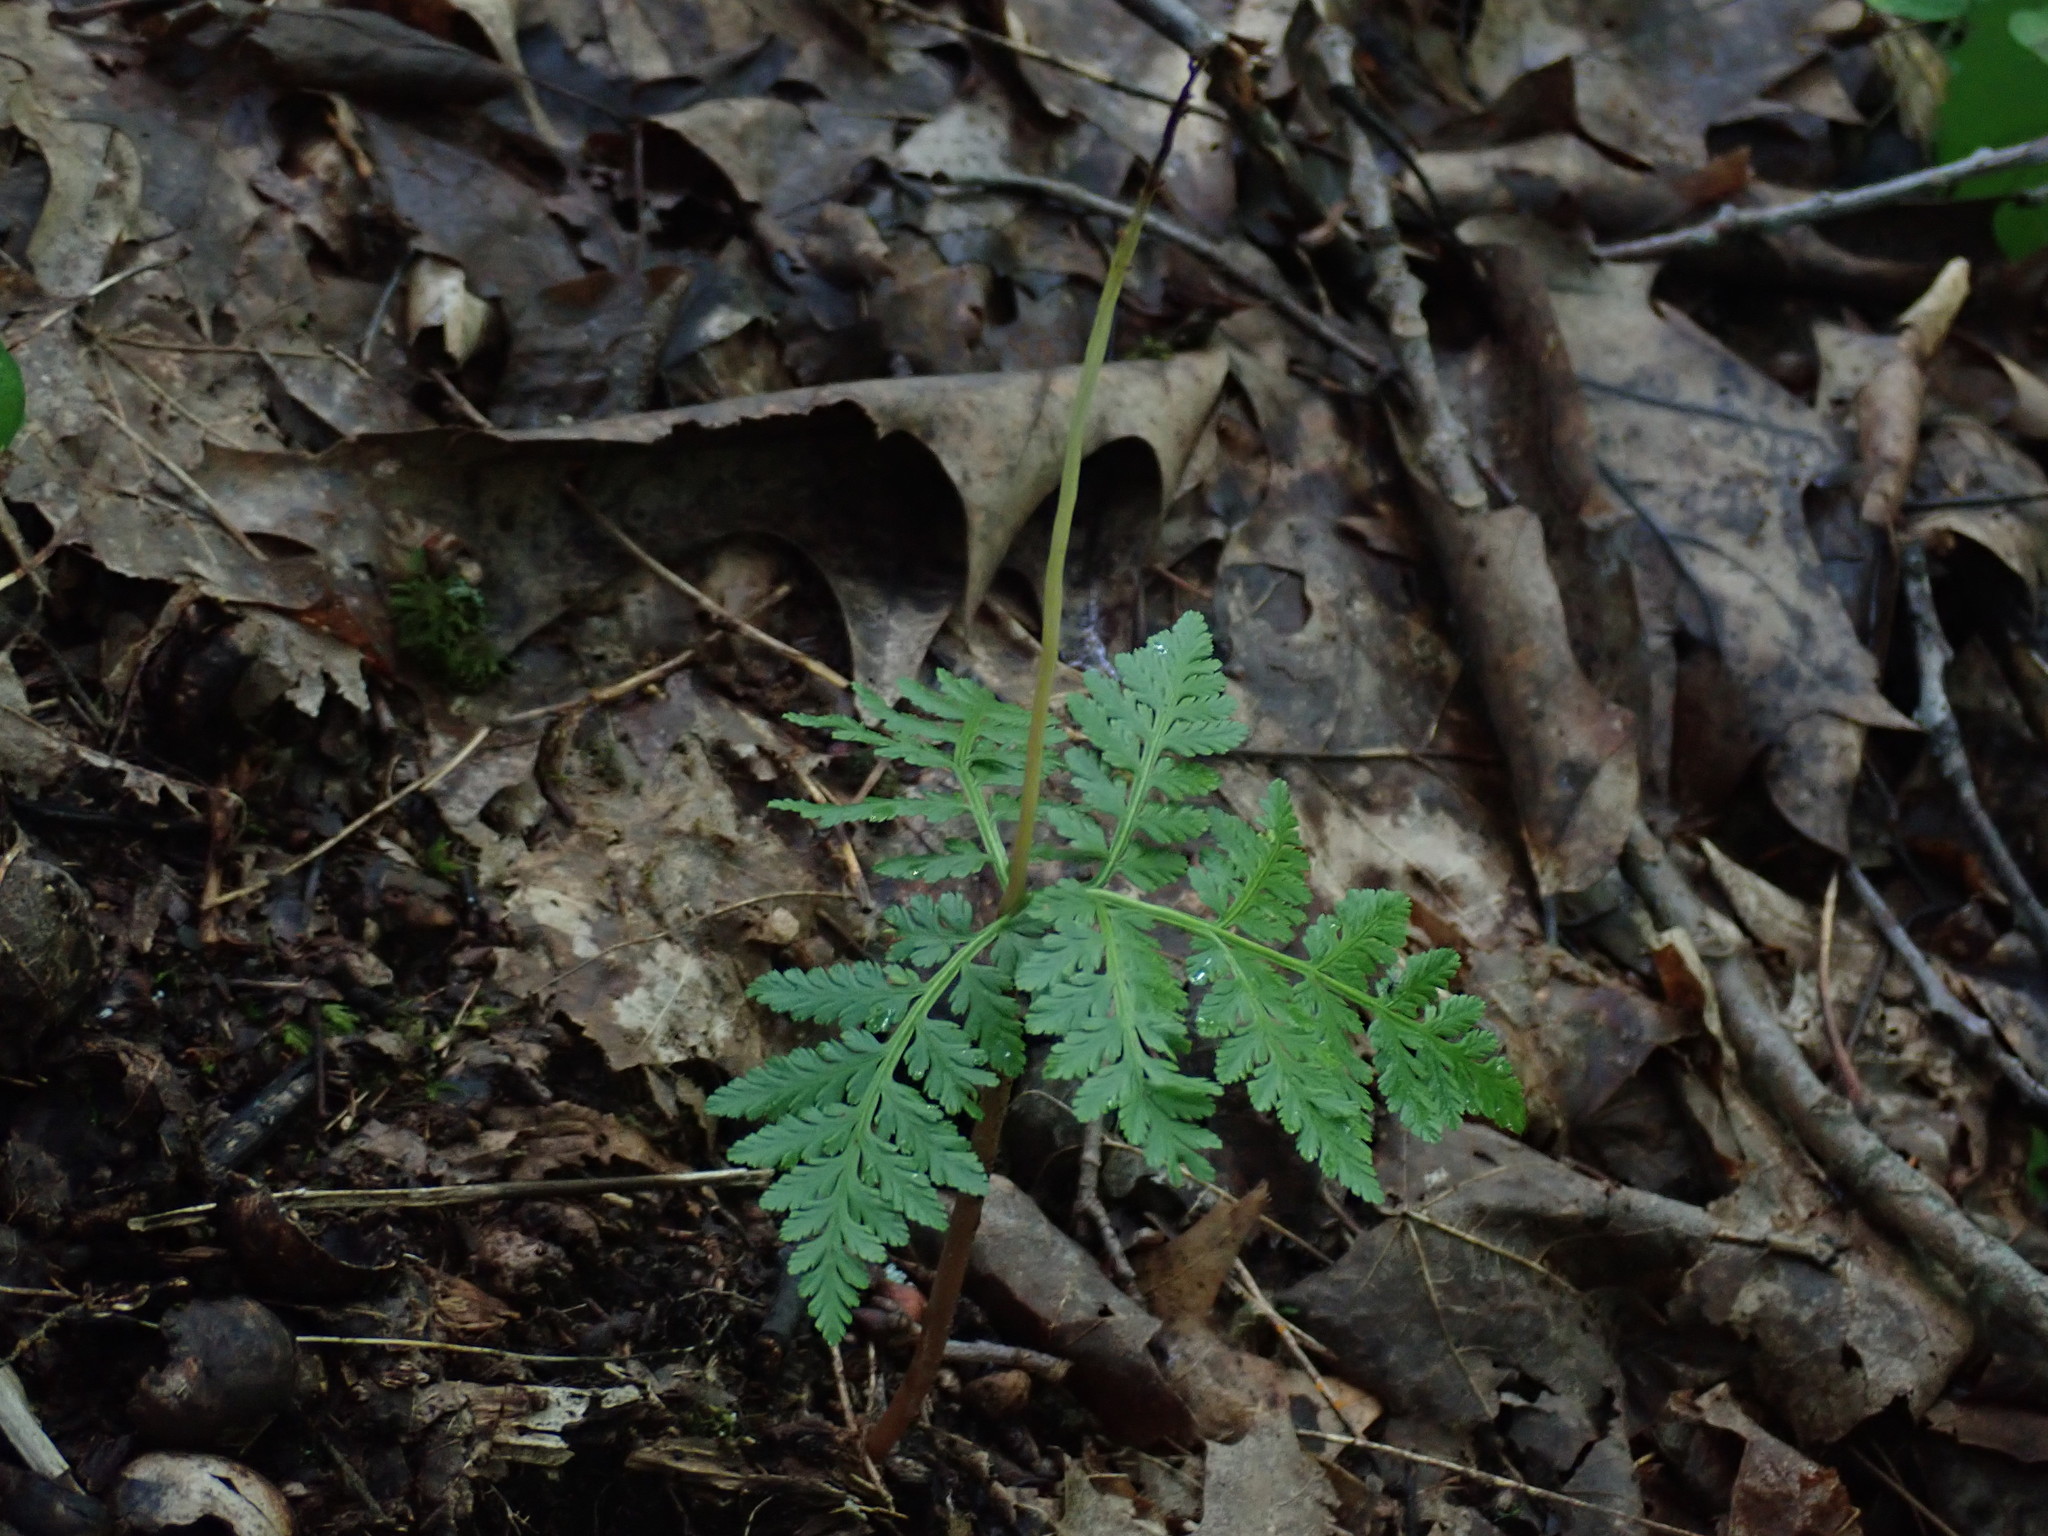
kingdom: Plantae
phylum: Tracheophyta
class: Polypodiopsida
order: Ophioglossales
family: Ophioglossaceae
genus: Botrypus
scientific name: Botrypus virginianus
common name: Common grapefern
